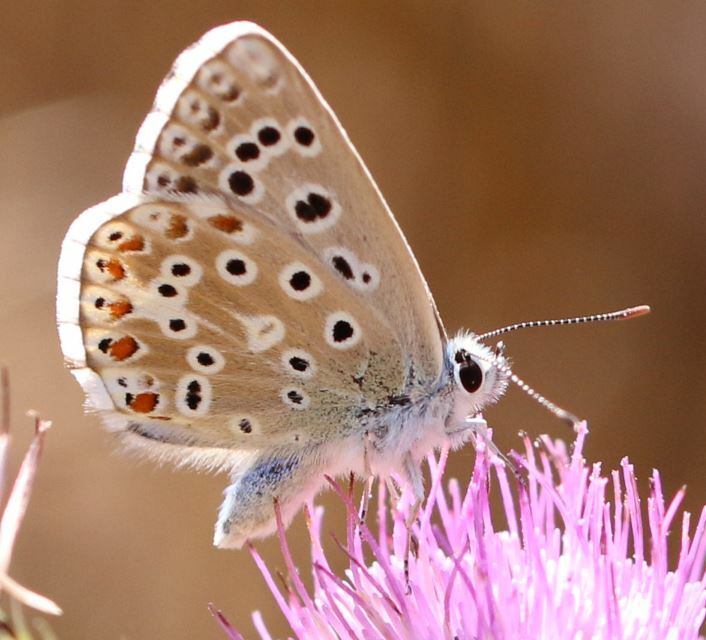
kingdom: Animalia
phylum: Arthropoda
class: Insecta
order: Lepidoptera
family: Lycaenidae
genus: Lysandra
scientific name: Lysandra bellargus
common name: Adonis blue
